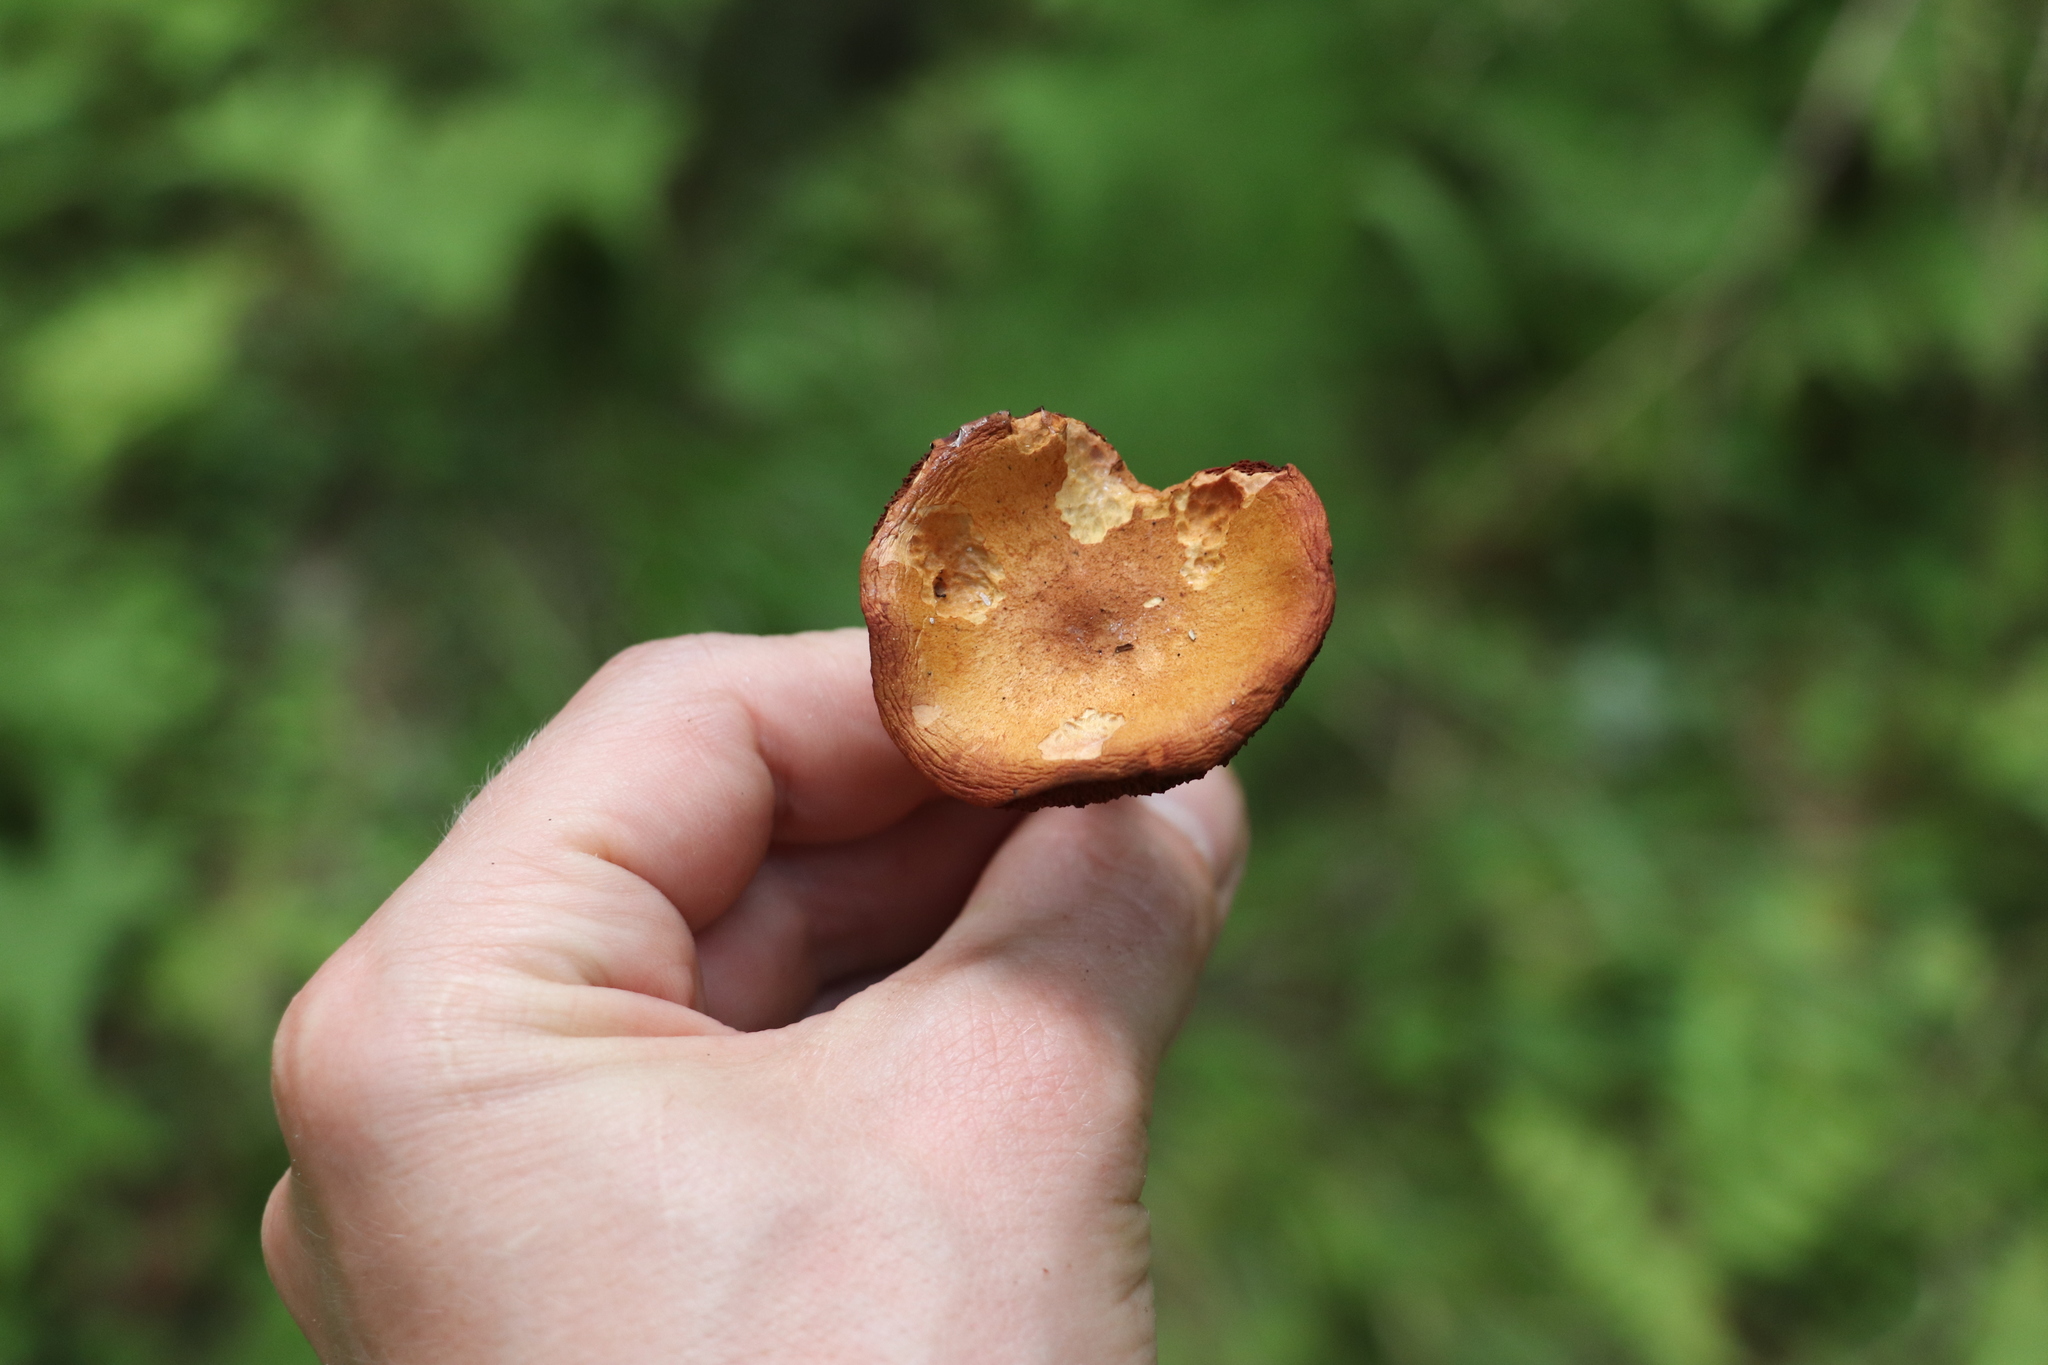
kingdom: Fungi
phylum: Basidiomycota
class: Agaricomycetes
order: Boletales
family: Boletaceae
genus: Chalciporus
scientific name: Chalciporus piperatus
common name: Peppery bolete
